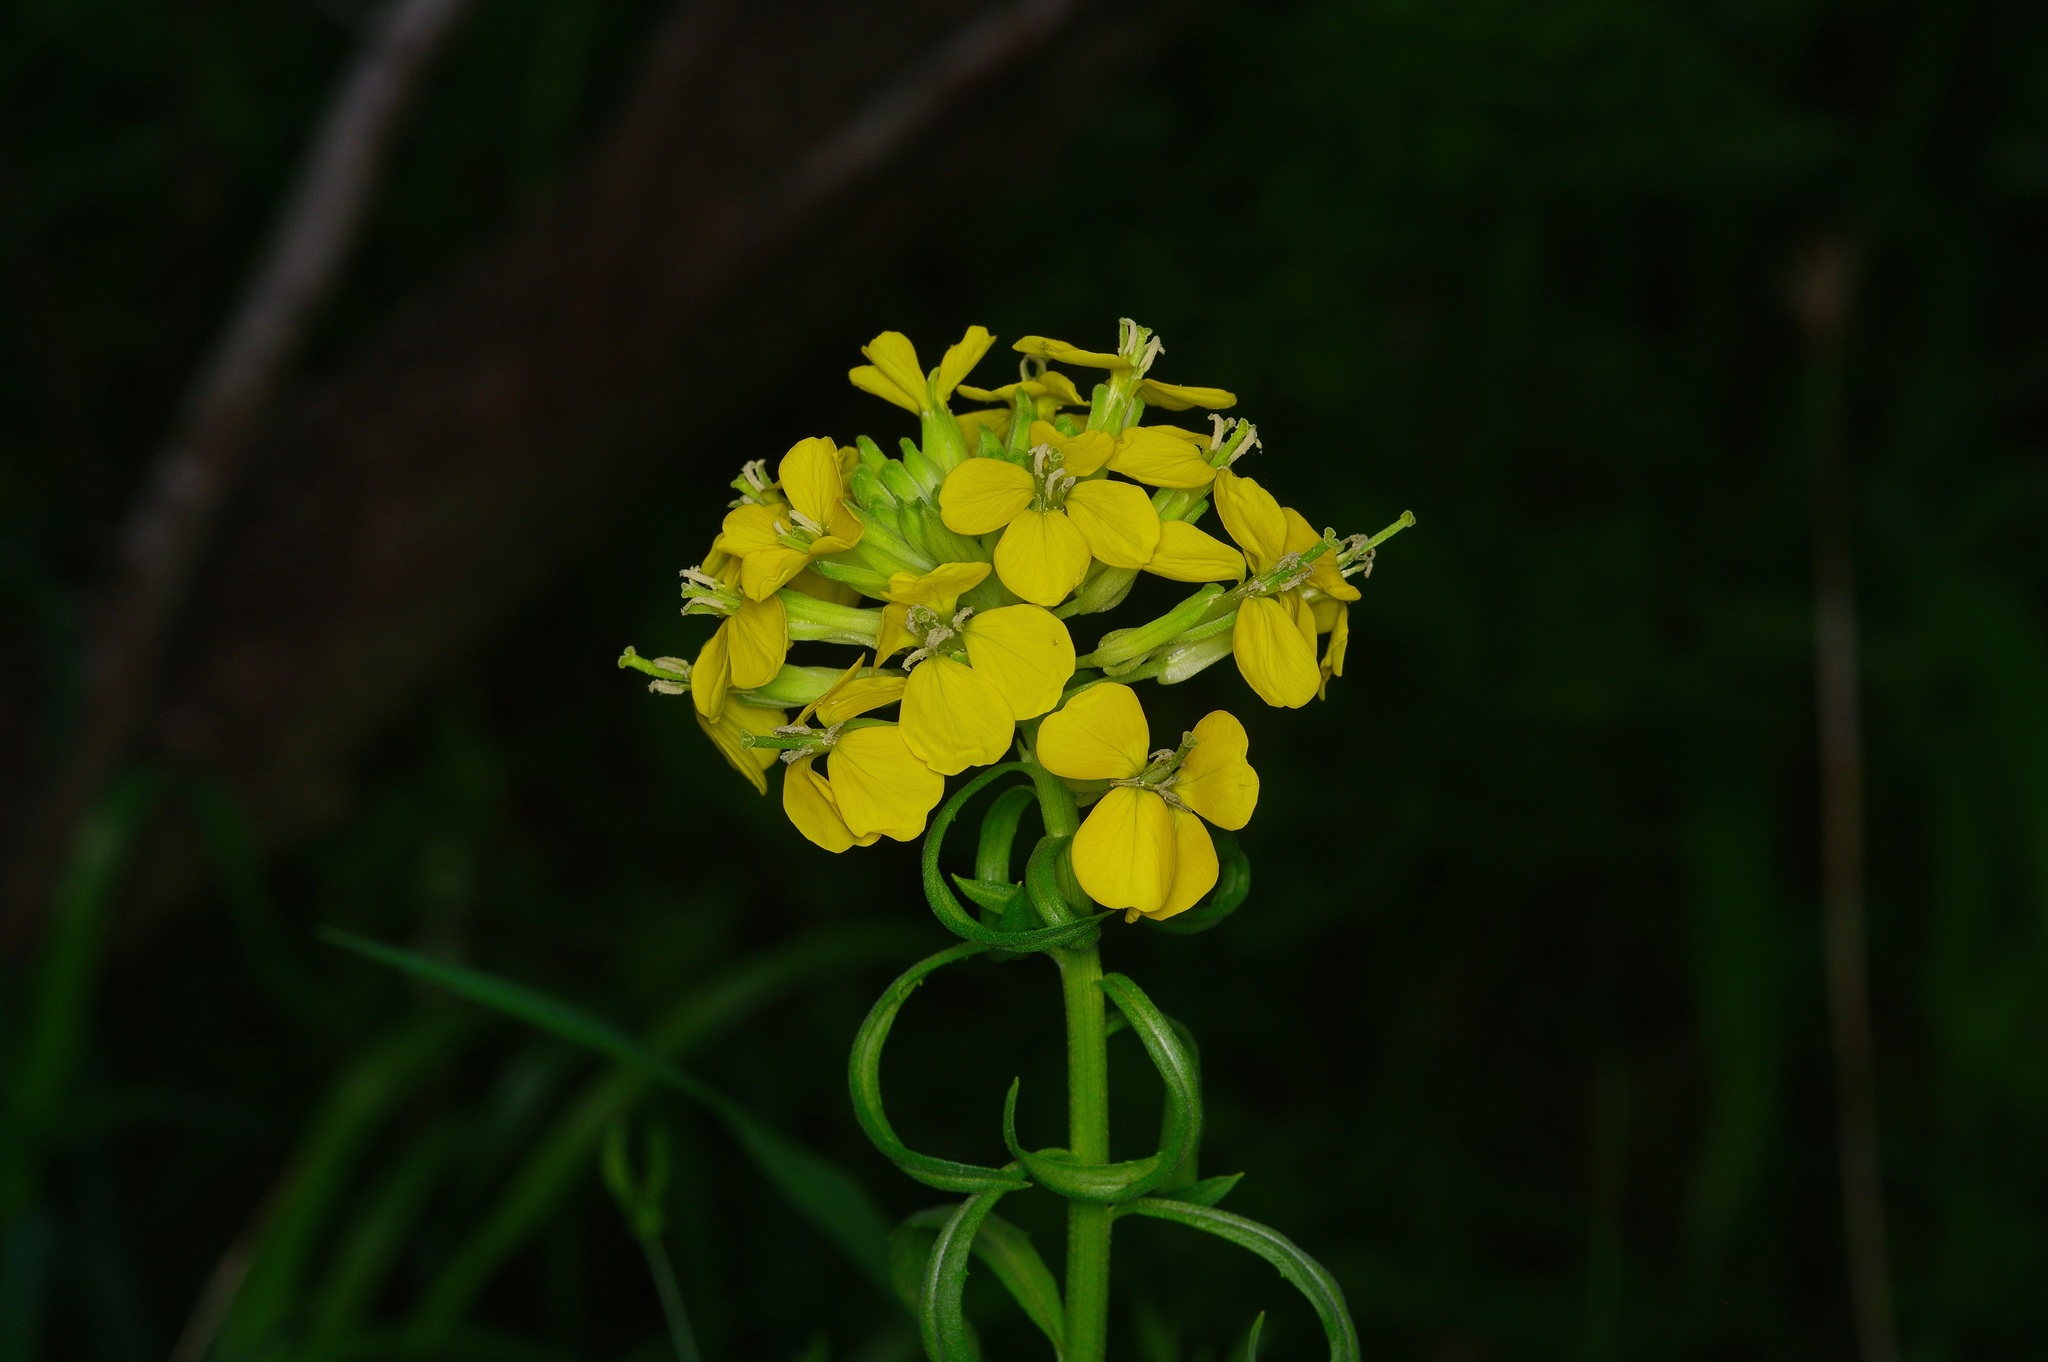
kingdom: Plantae
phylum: Tracheophyta
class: Magnoliopsida
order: Brassicales
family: Brassicaceae
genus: Erysimum
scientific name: Erysimum capitatum
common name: Western wallflower
